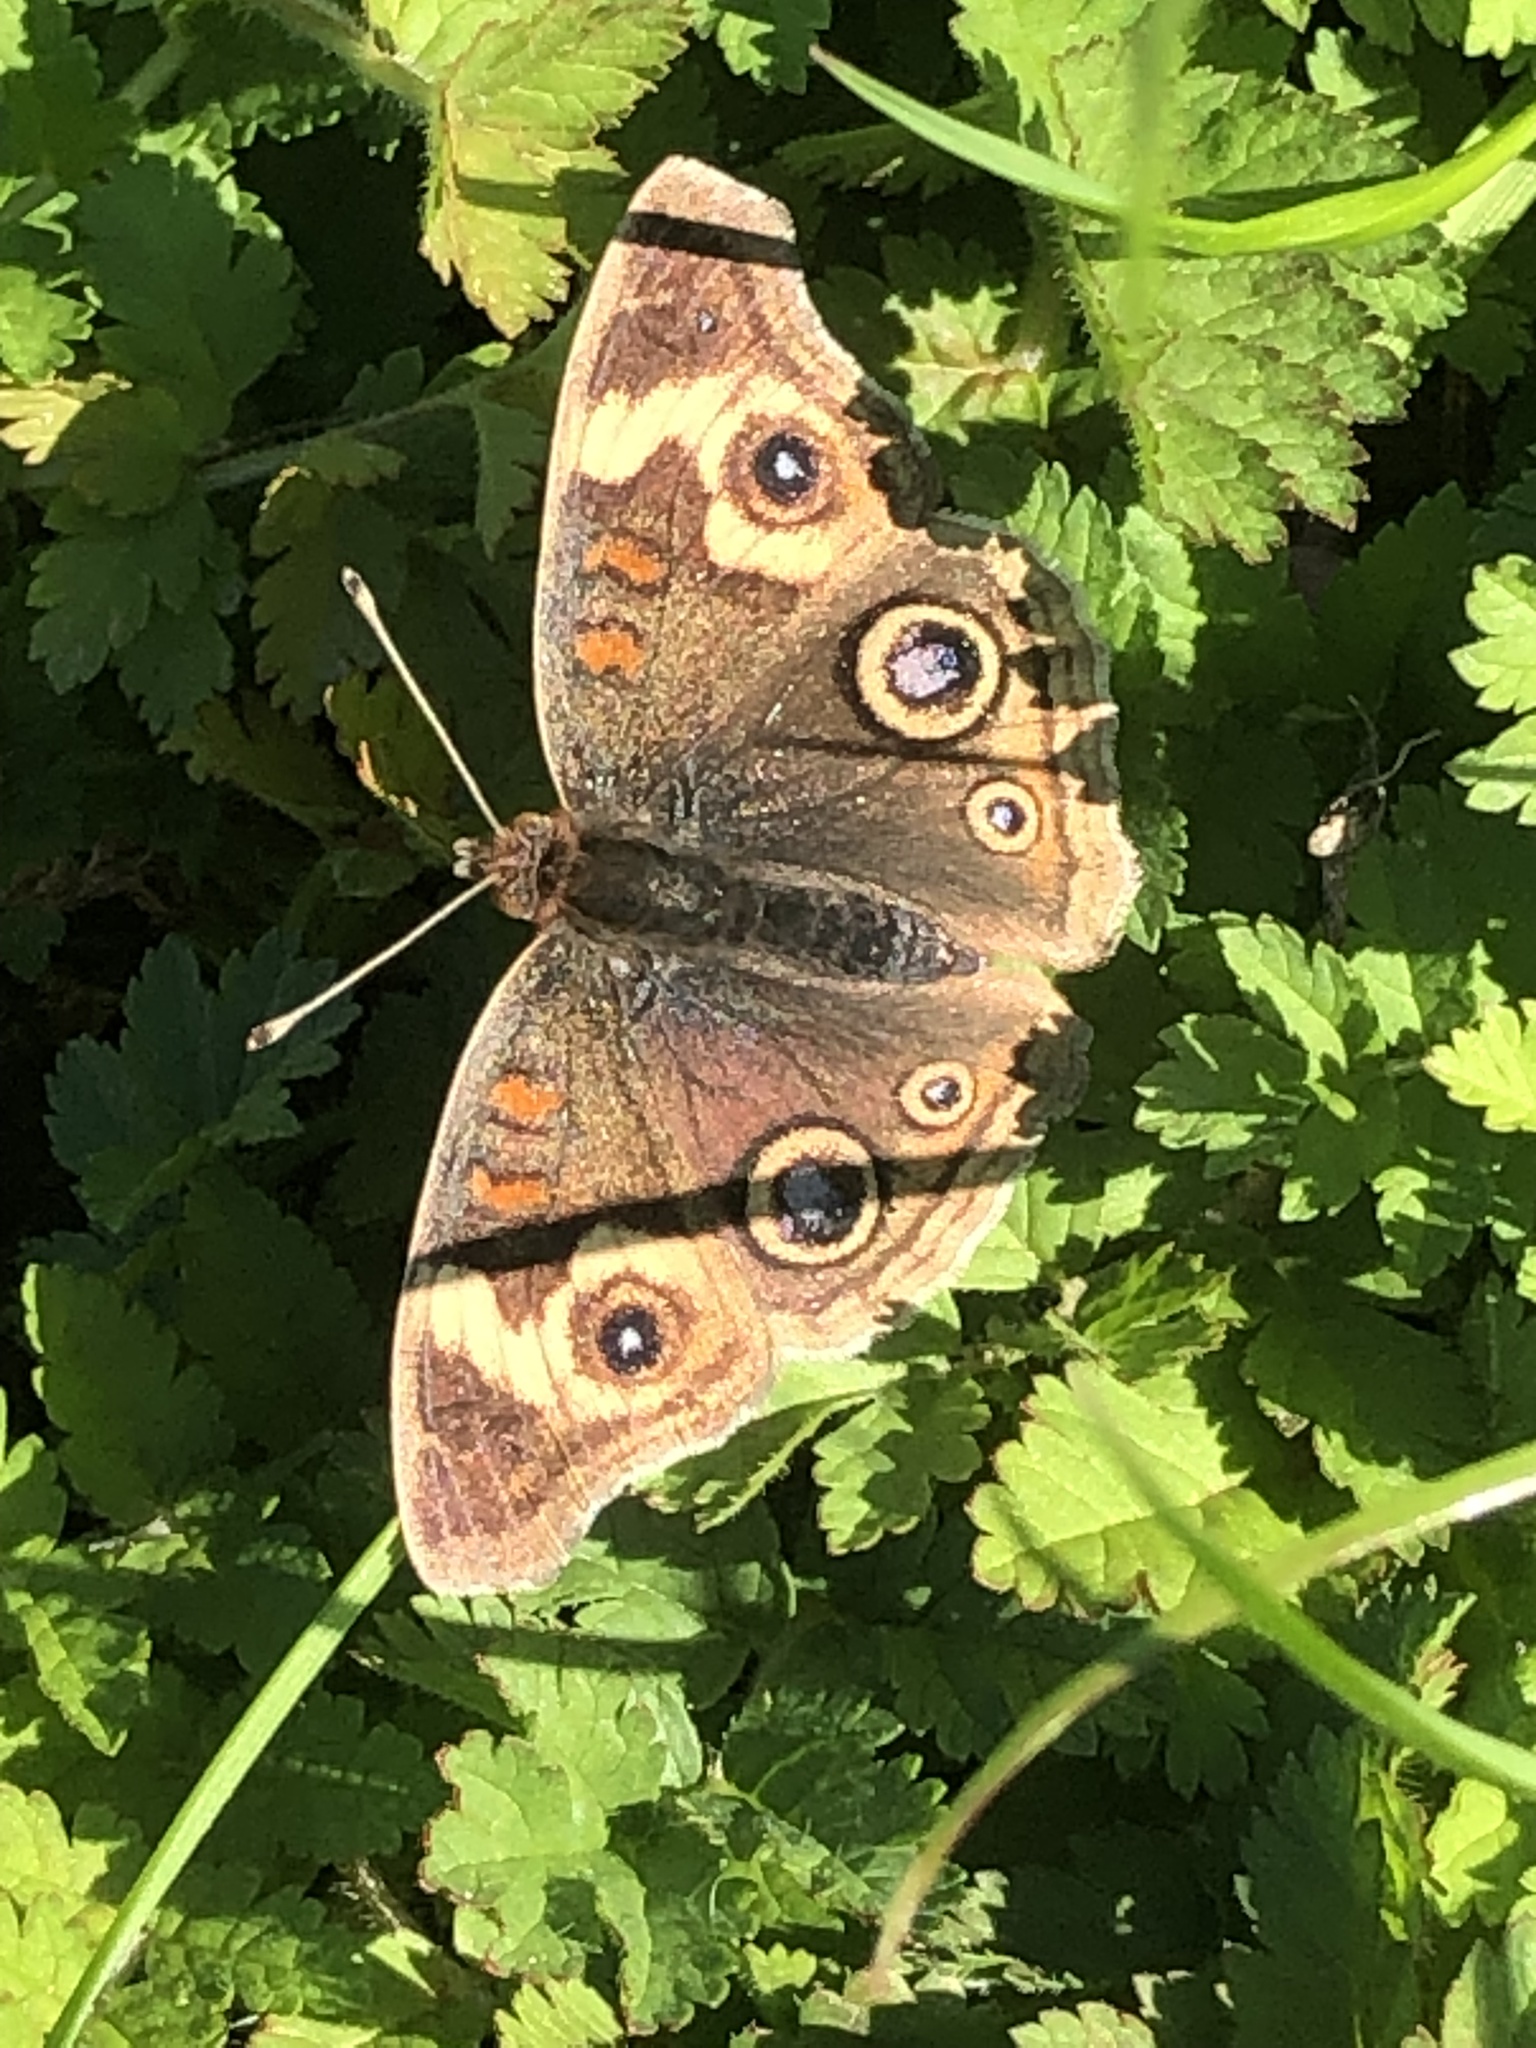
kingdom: Animalia
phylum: Arthropoda
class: Insecta
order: Lepidoptera
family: Nymphalidae
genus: Junonia
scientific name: Junonia grisea
